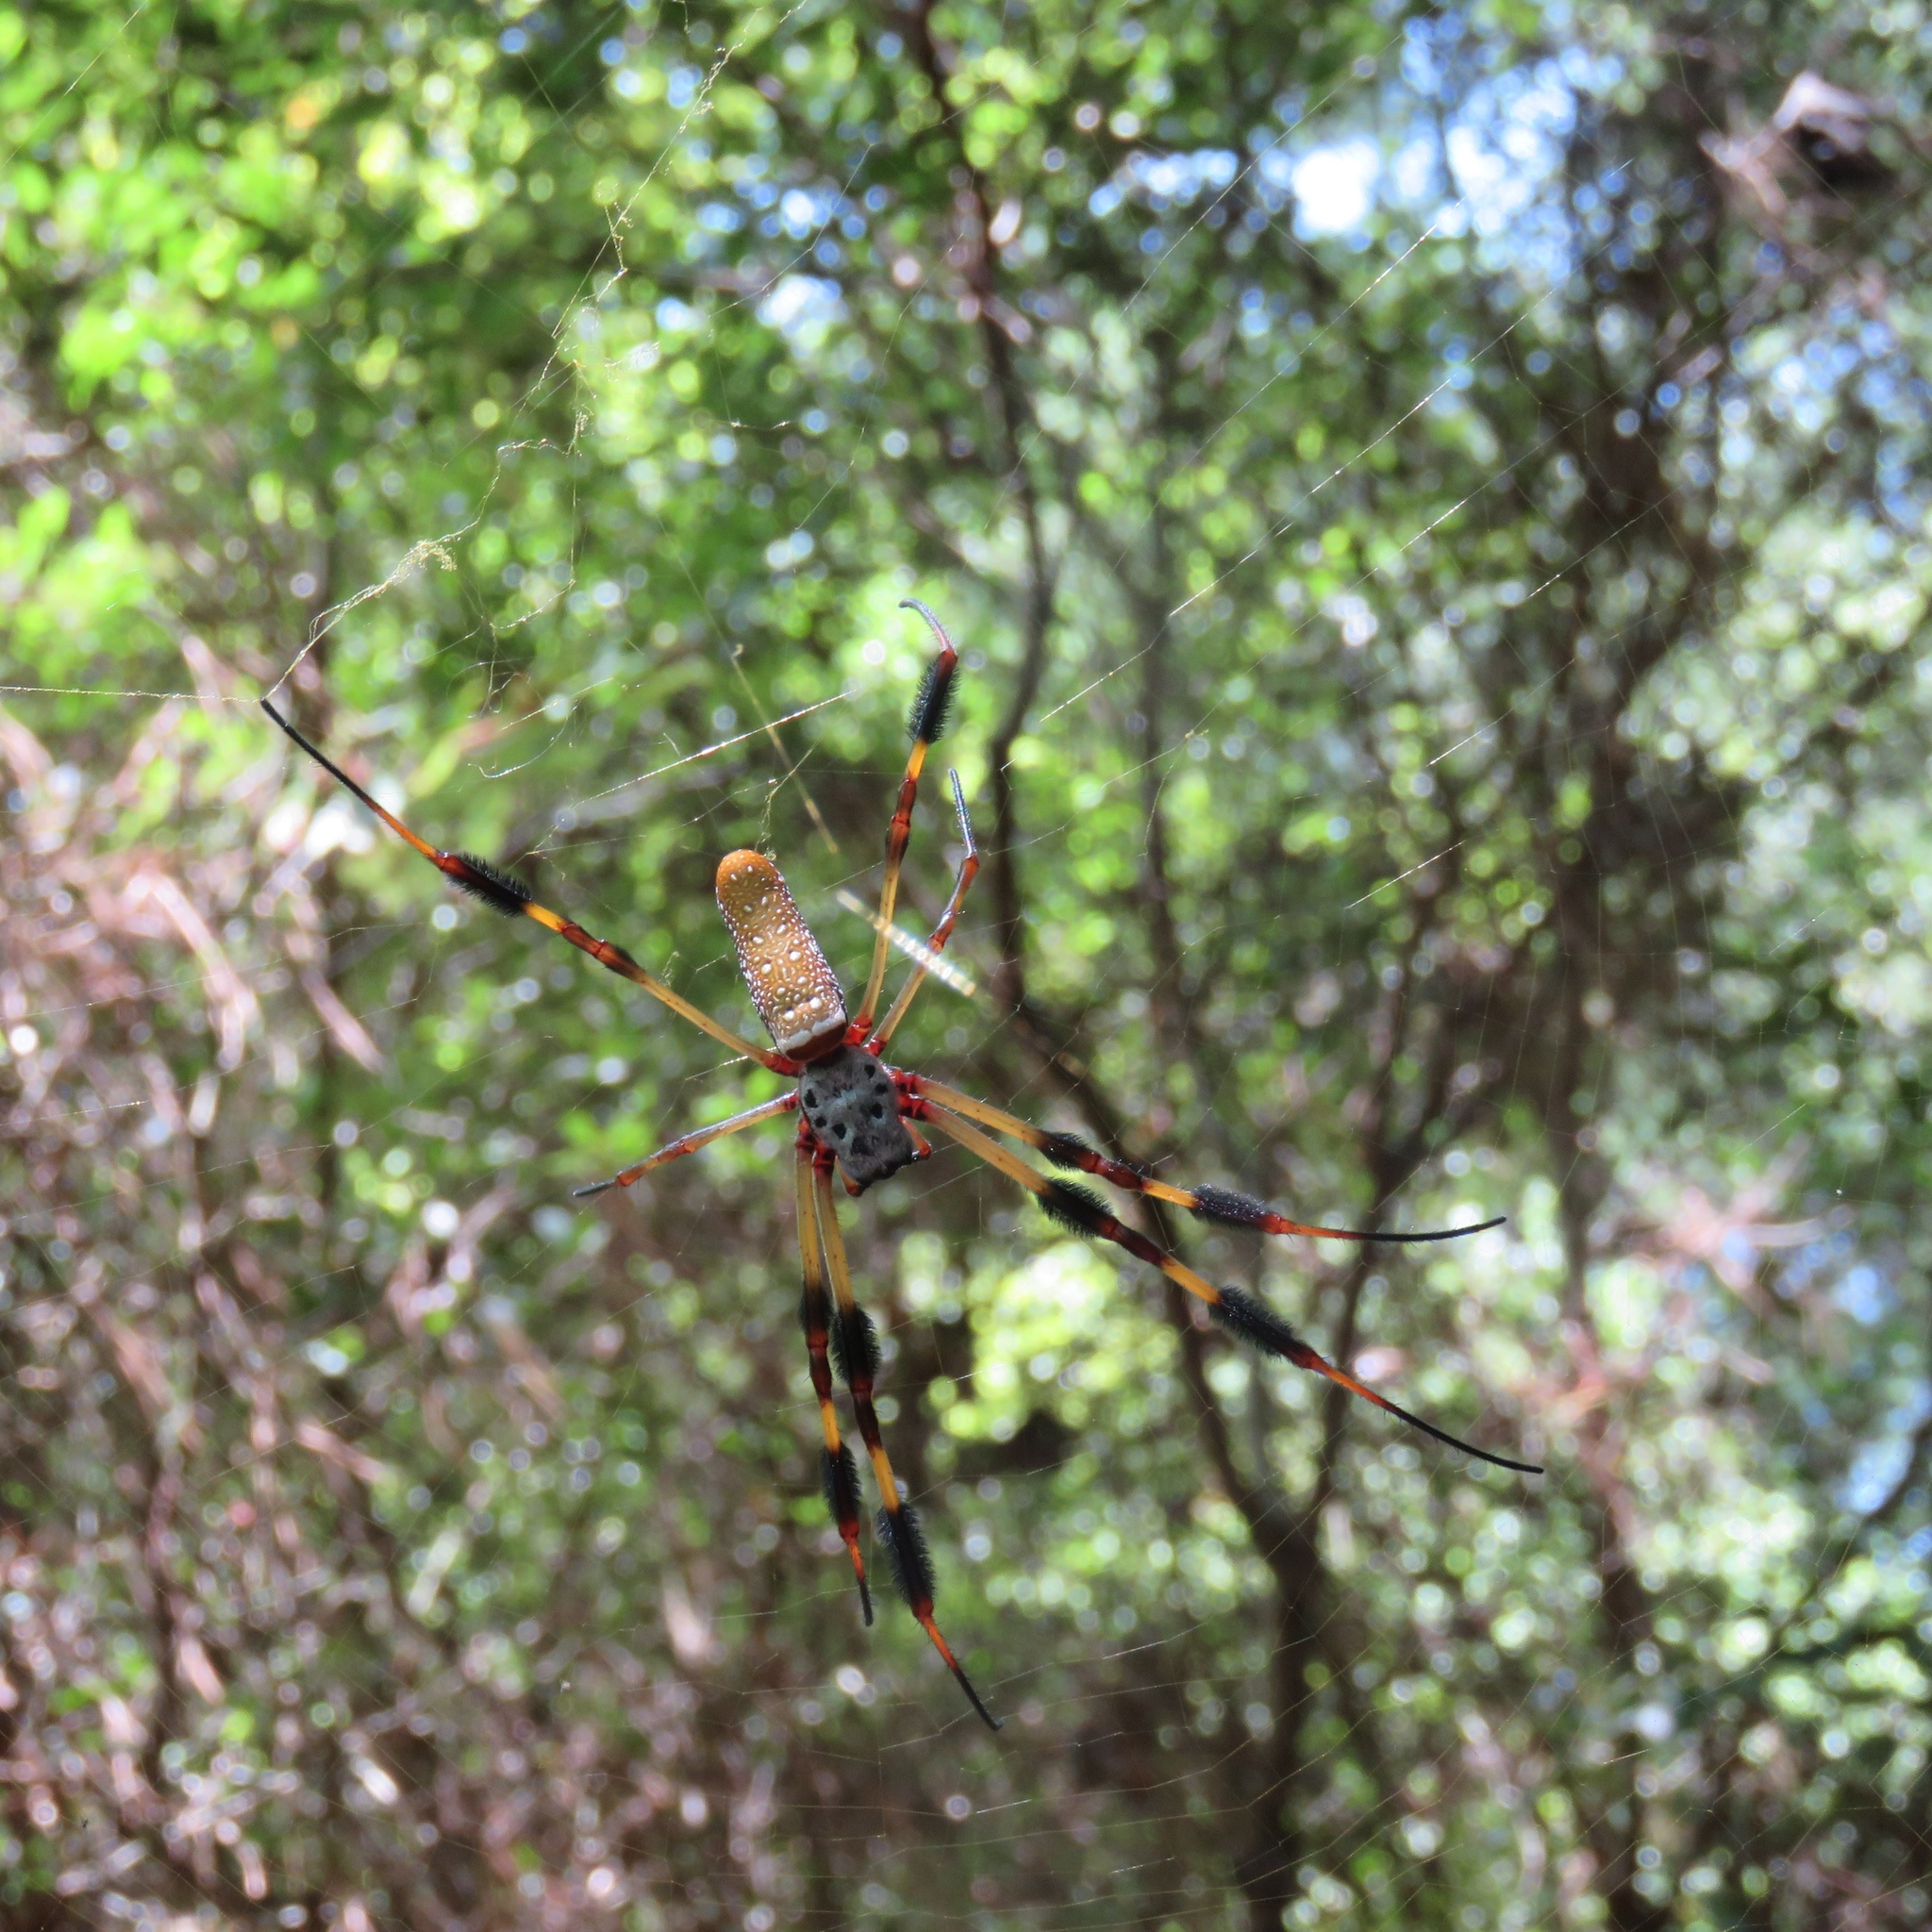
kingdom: Animalia
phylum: Arthropoda
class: Arachnida
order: Araneae
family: Araneidae
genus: Trichonephila
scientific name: Trichonephila clavipes
